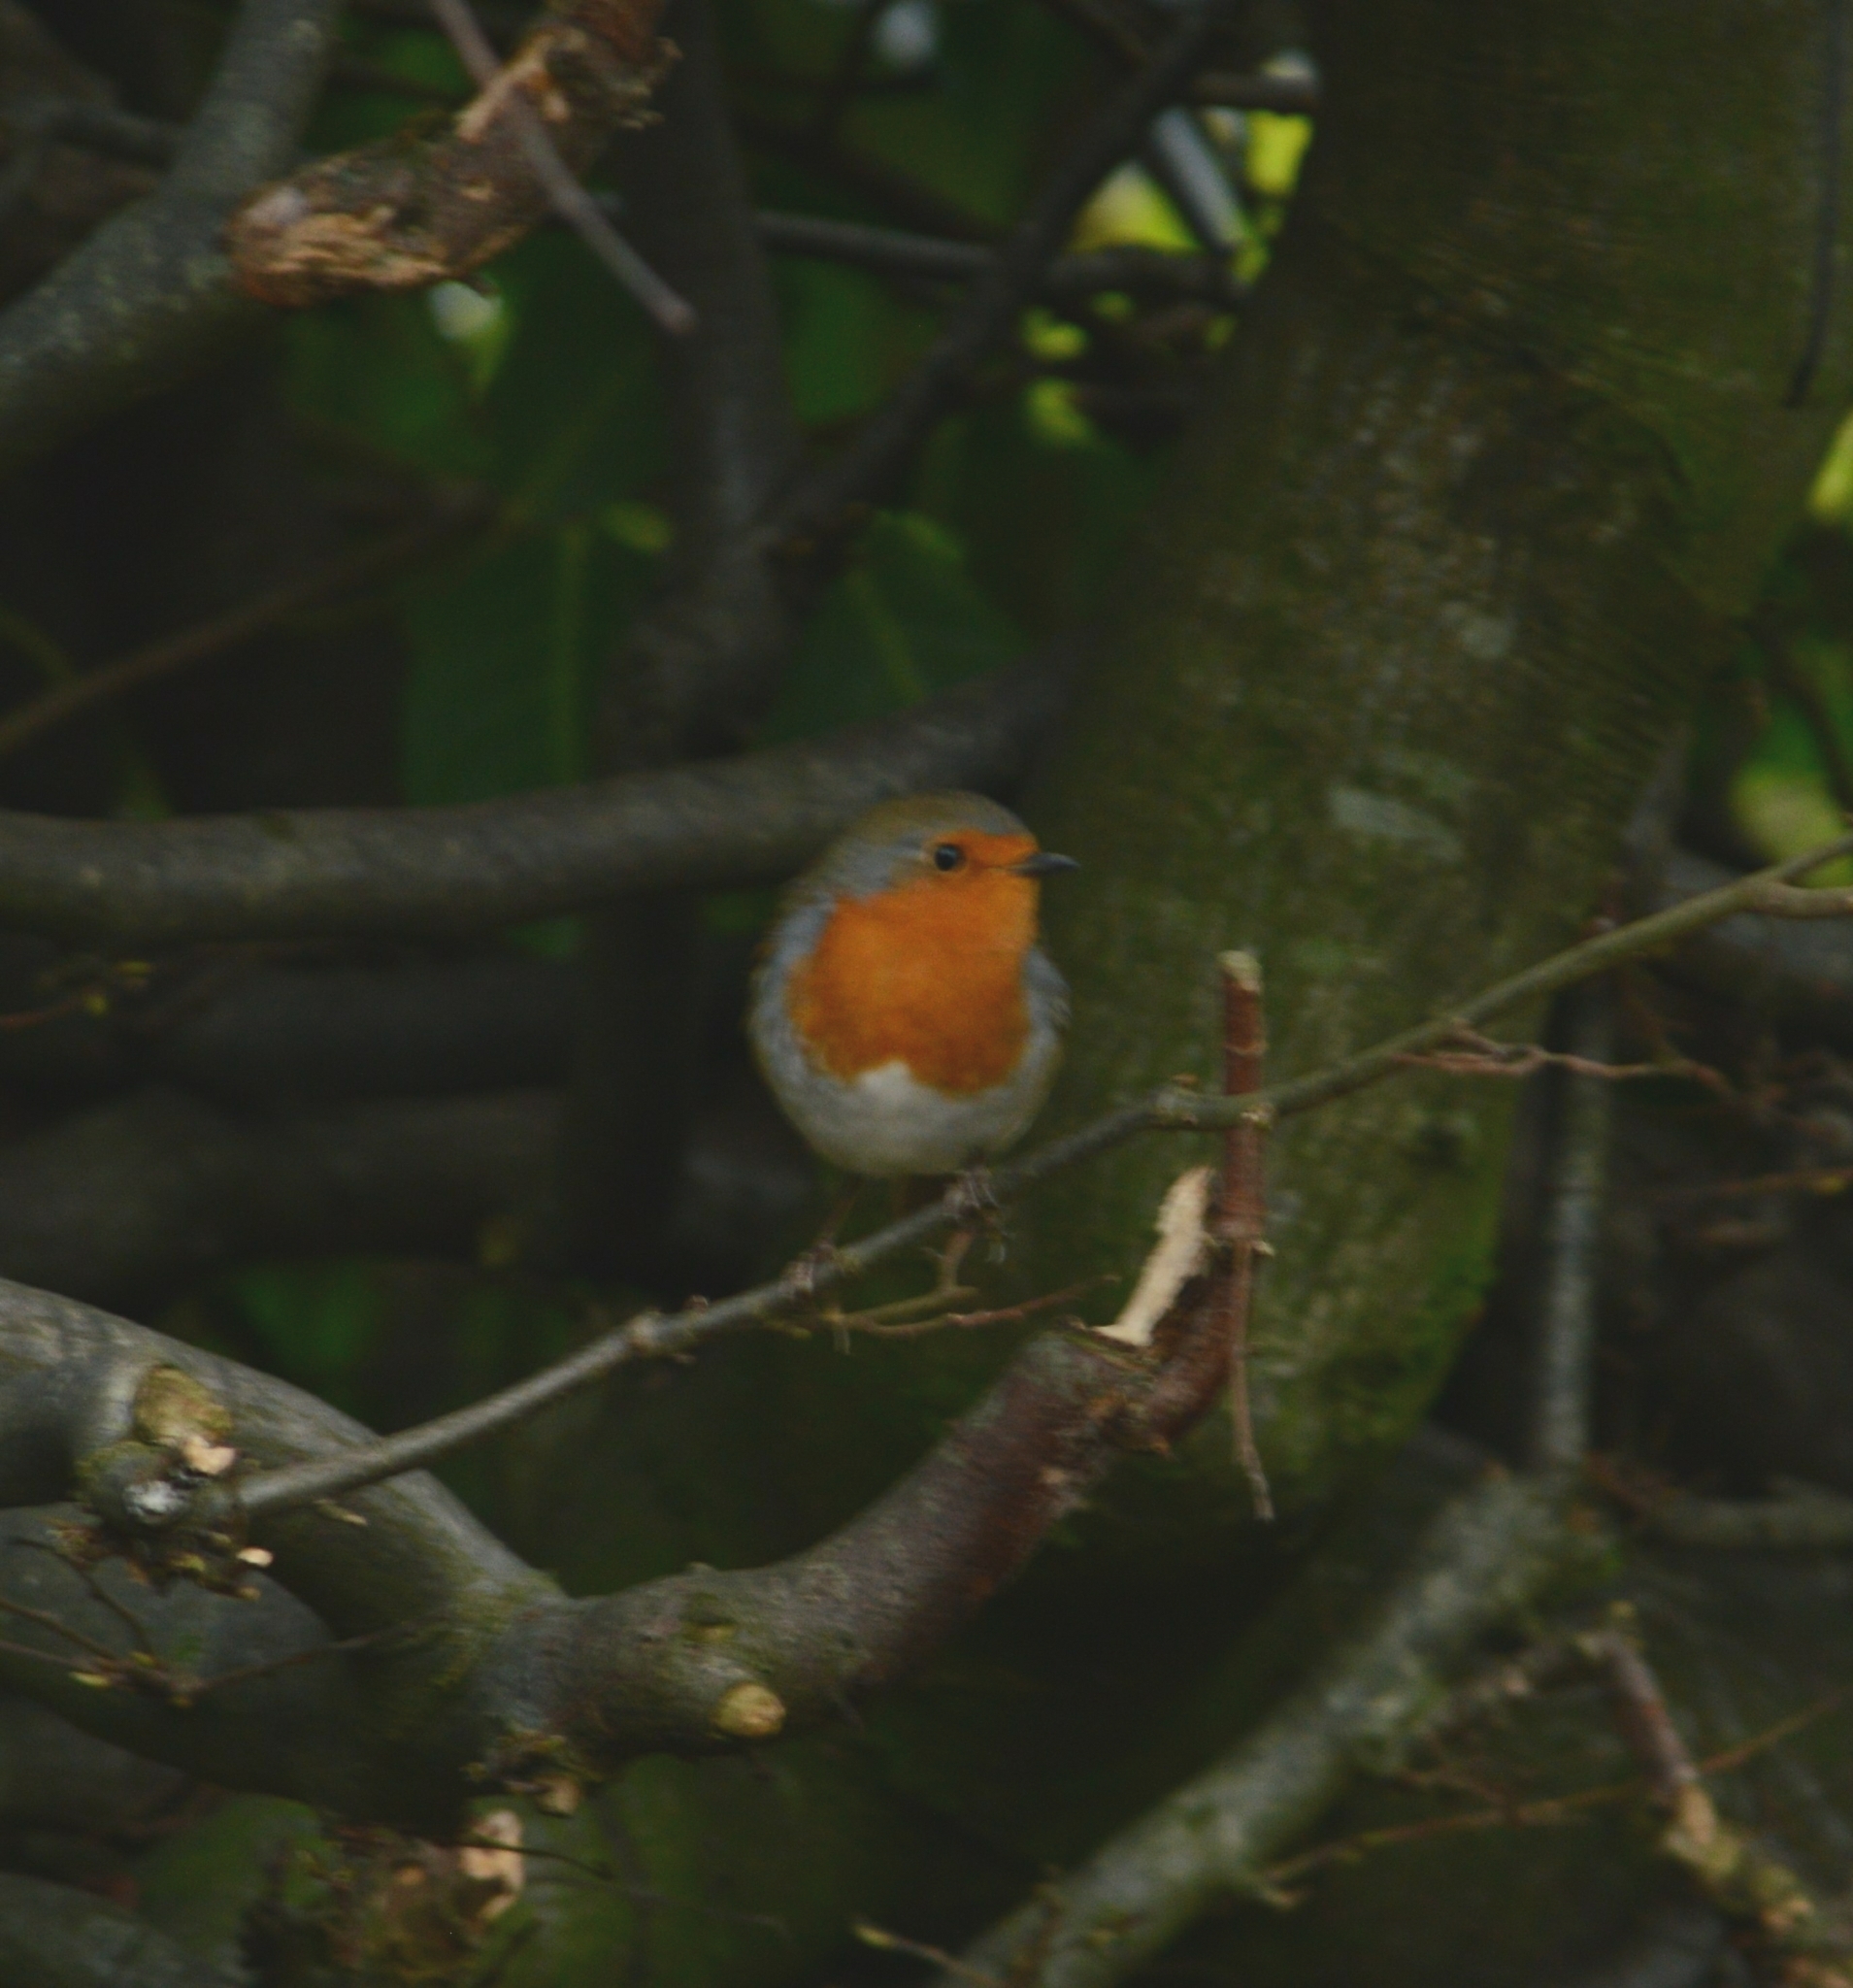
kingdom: Animalia
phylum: Chordata
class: Aves
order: Passeriformes
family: Muscicapidae
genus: Erithacus
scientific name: Erithacus rubecula
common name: European robin
